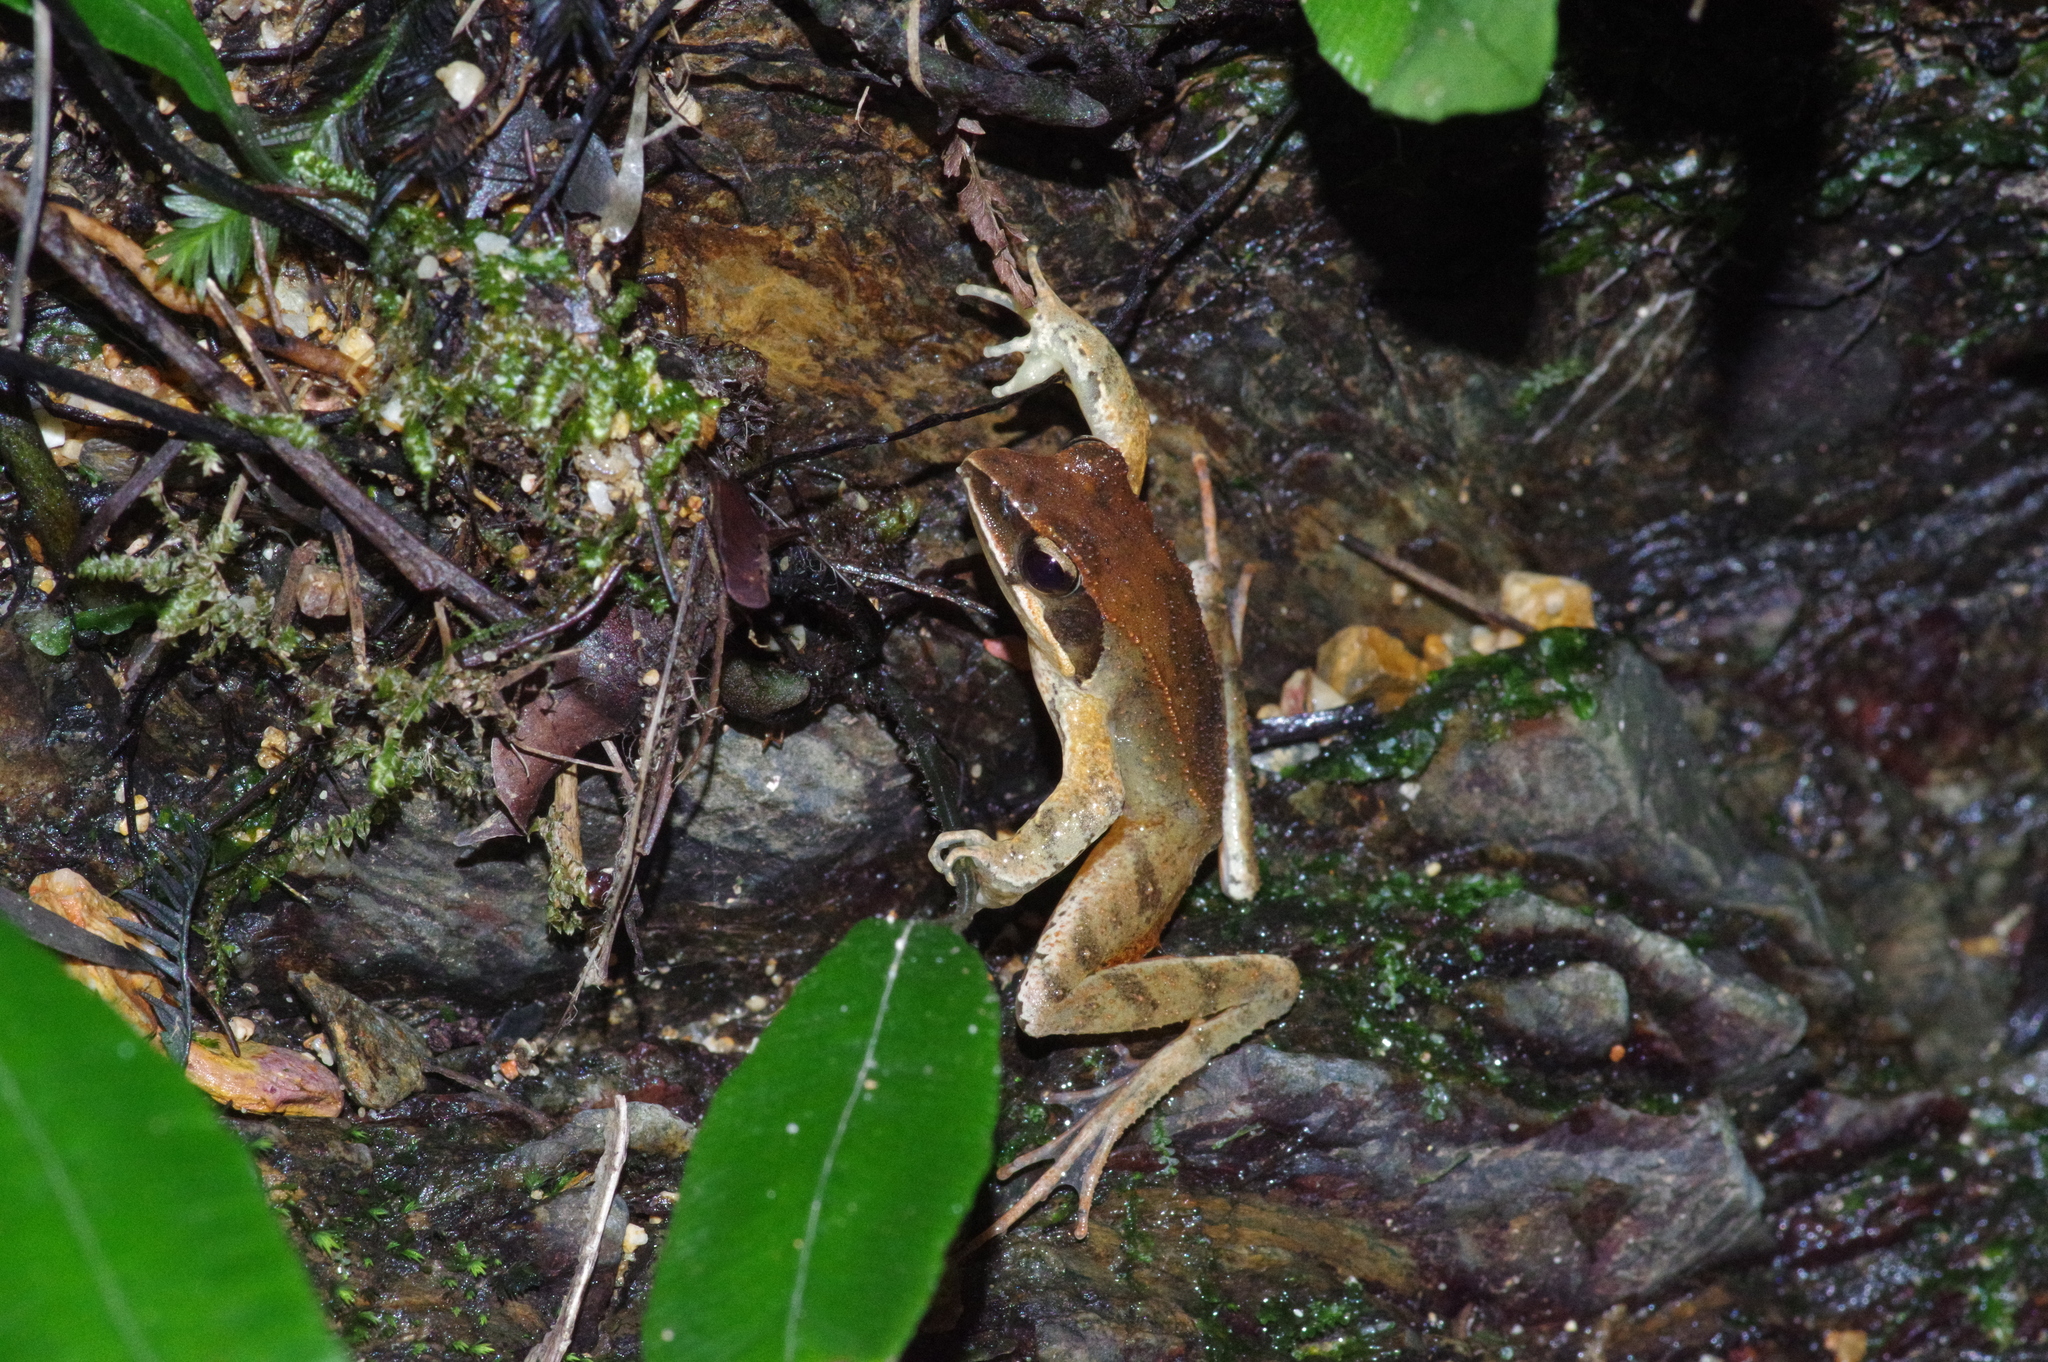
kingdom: Animalia
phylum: Chordata
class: Amphibia
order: Anura
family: Ranidae
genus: Rana
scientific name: Rana ulma
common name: Ryukyu brown frog
